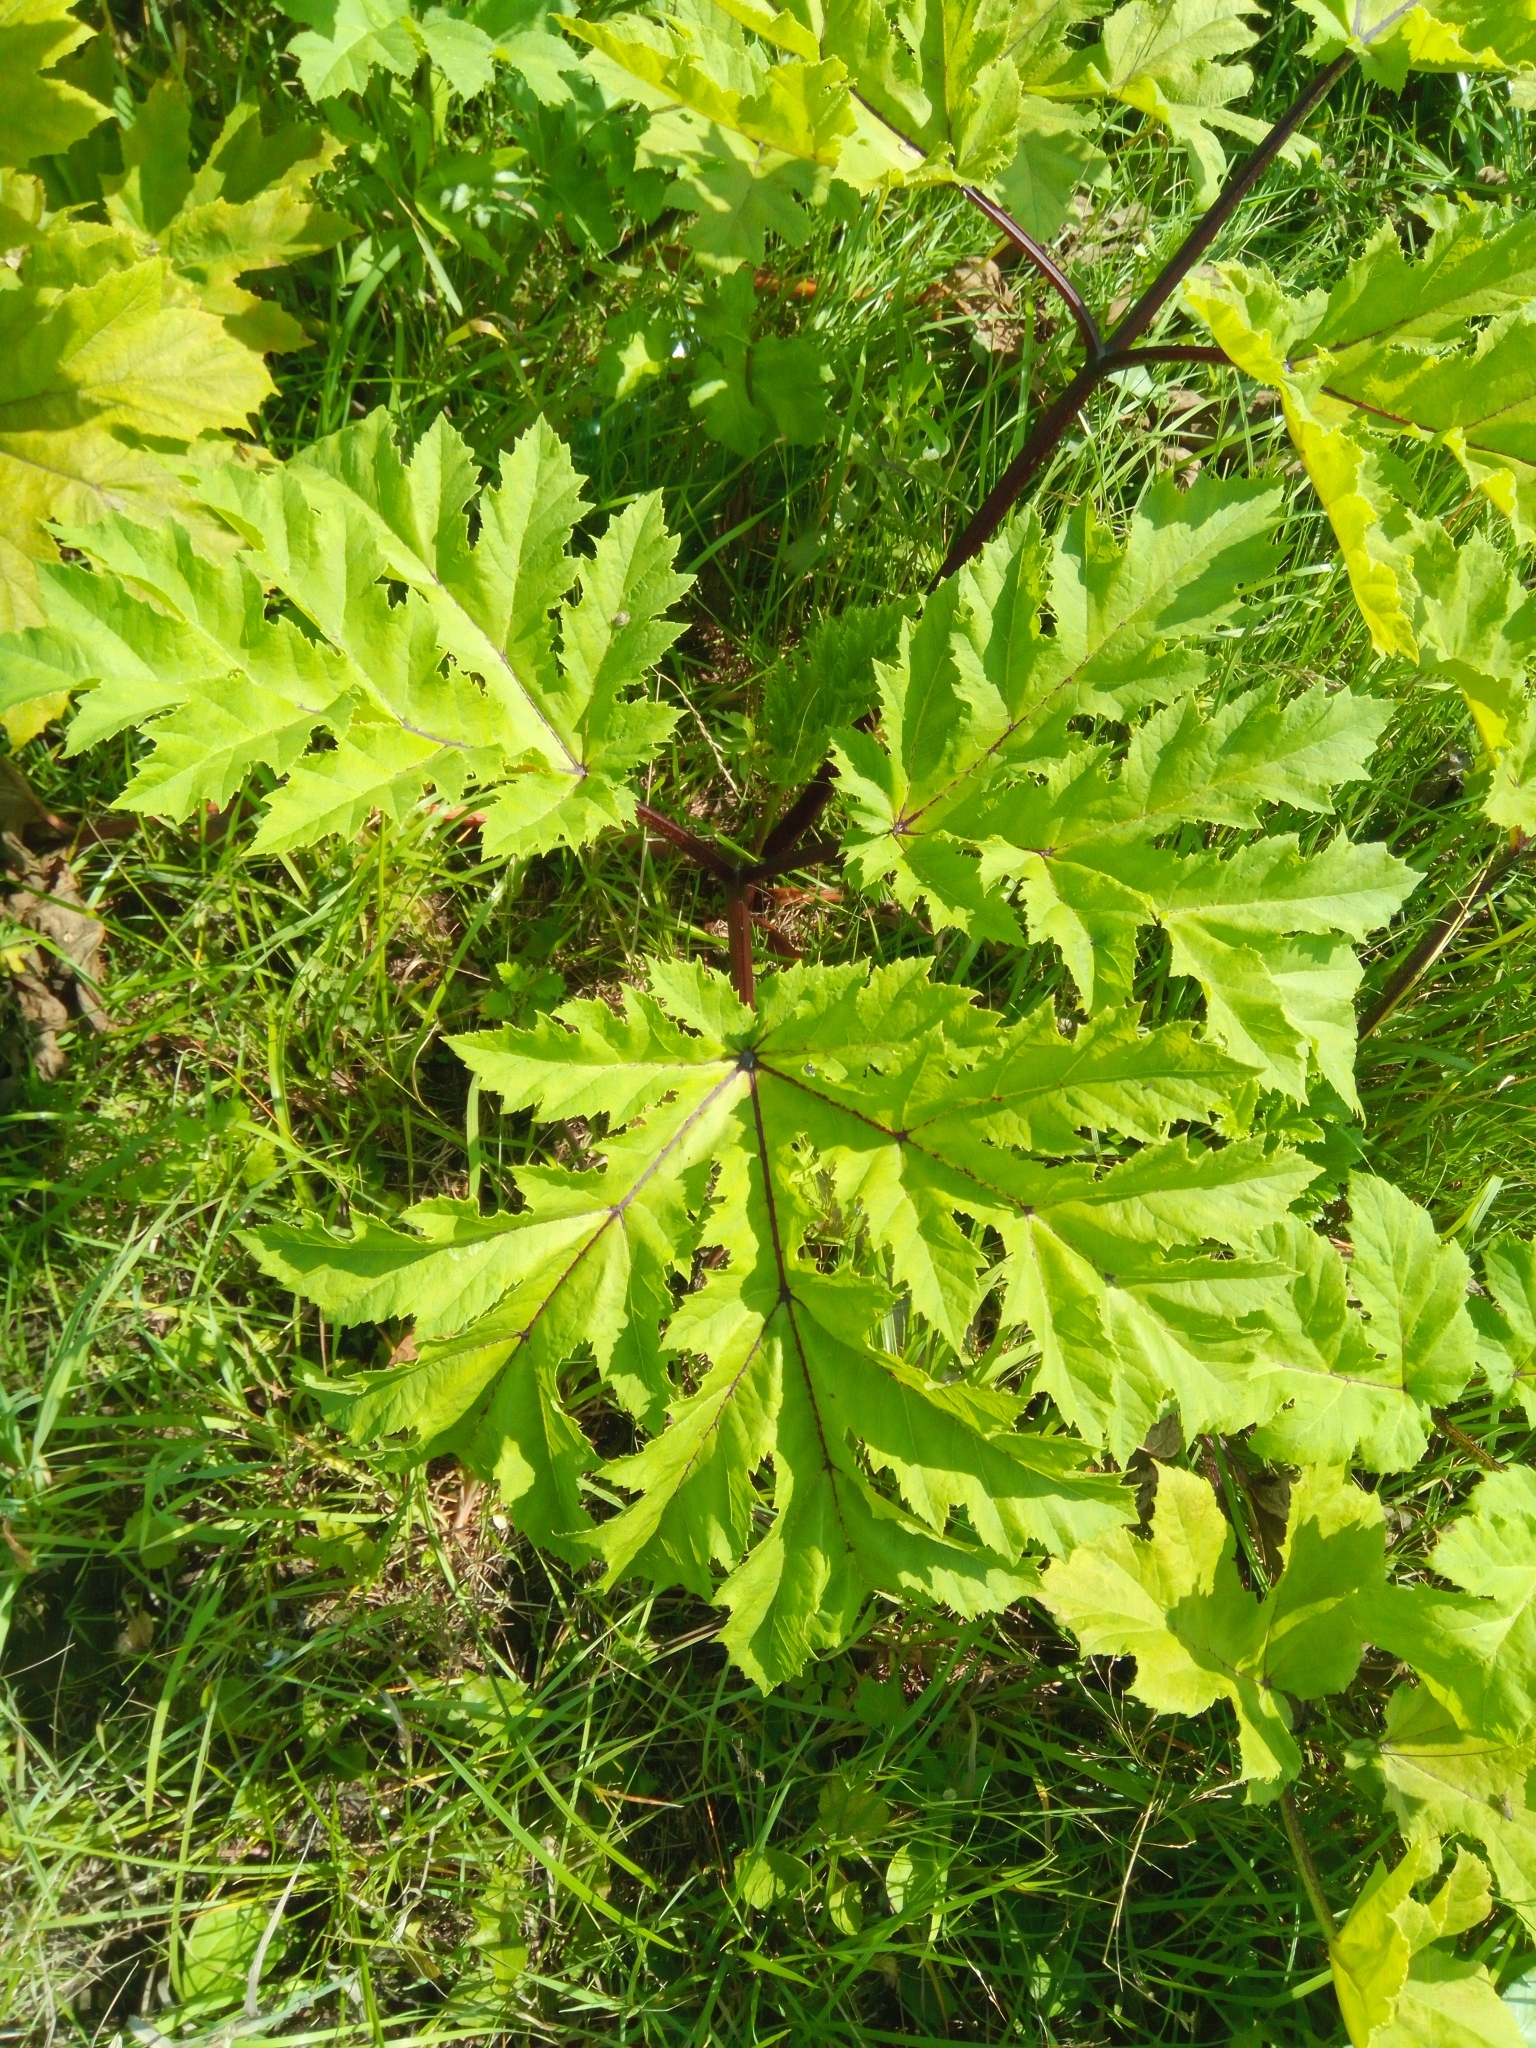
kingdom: Plantae
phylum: Tracheophyta
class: Magnoliopsida
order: Apiales
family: Apiaceae
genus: Heracleum
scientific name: Heracleum sosnowskyi
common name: Sosnowsky's hogweed
